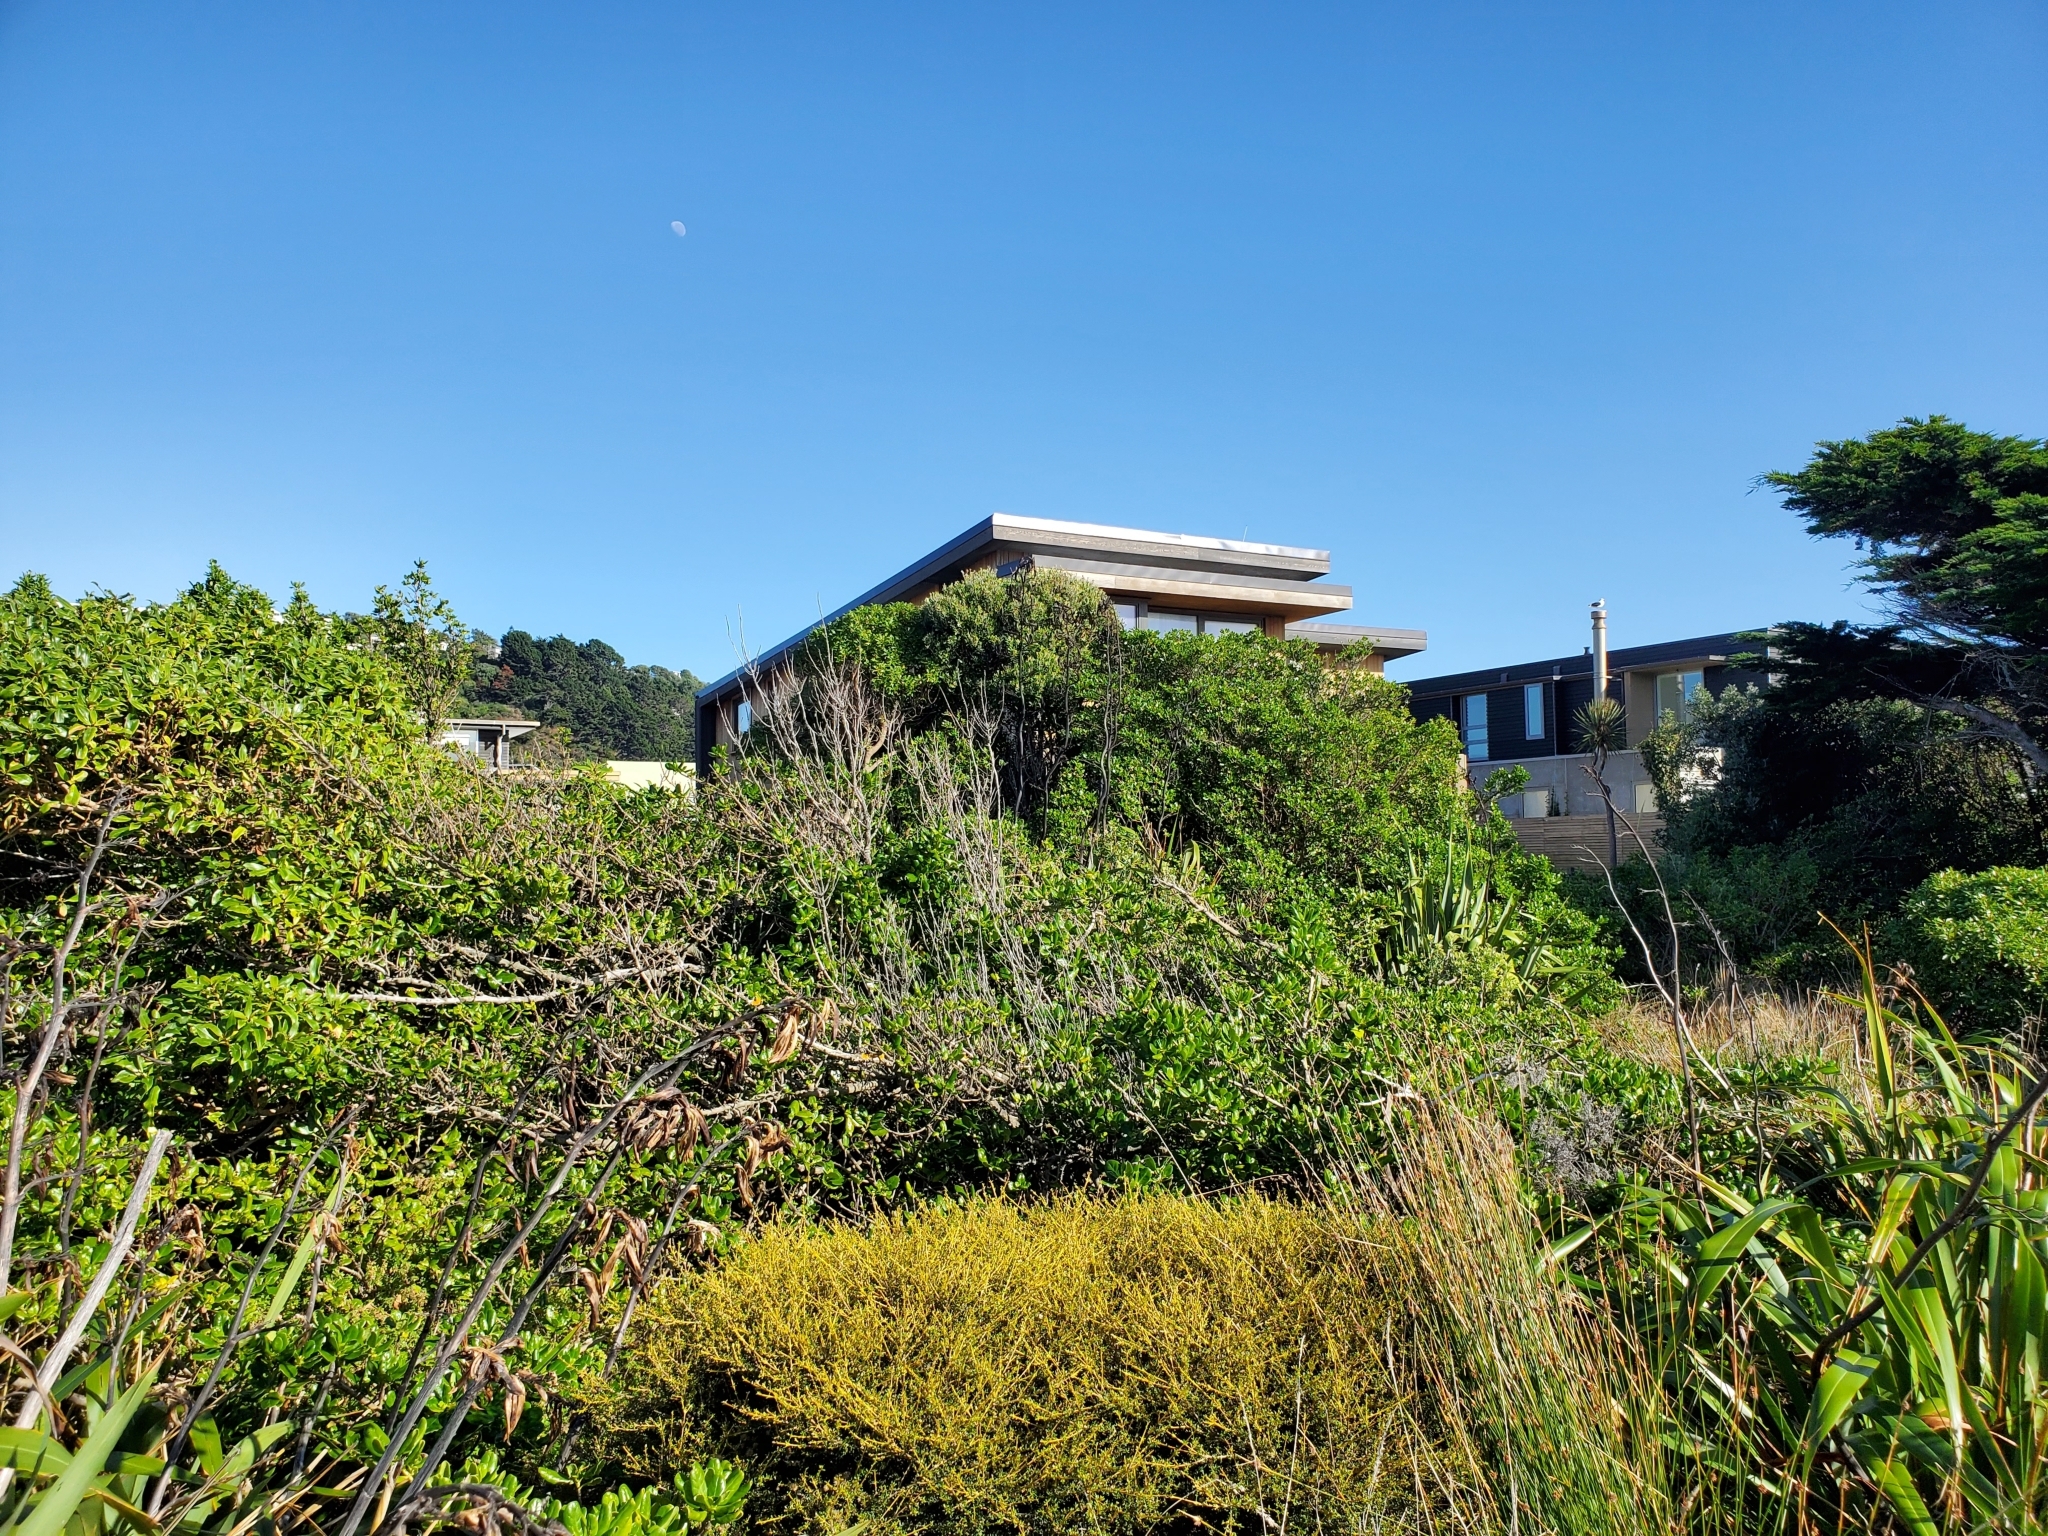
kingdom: Animalia
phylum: Chordata
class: Aves
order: Passeriformes
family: Zosteropidae
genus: Zosterops
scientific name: Zosterops lateralis
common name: Silvereye
